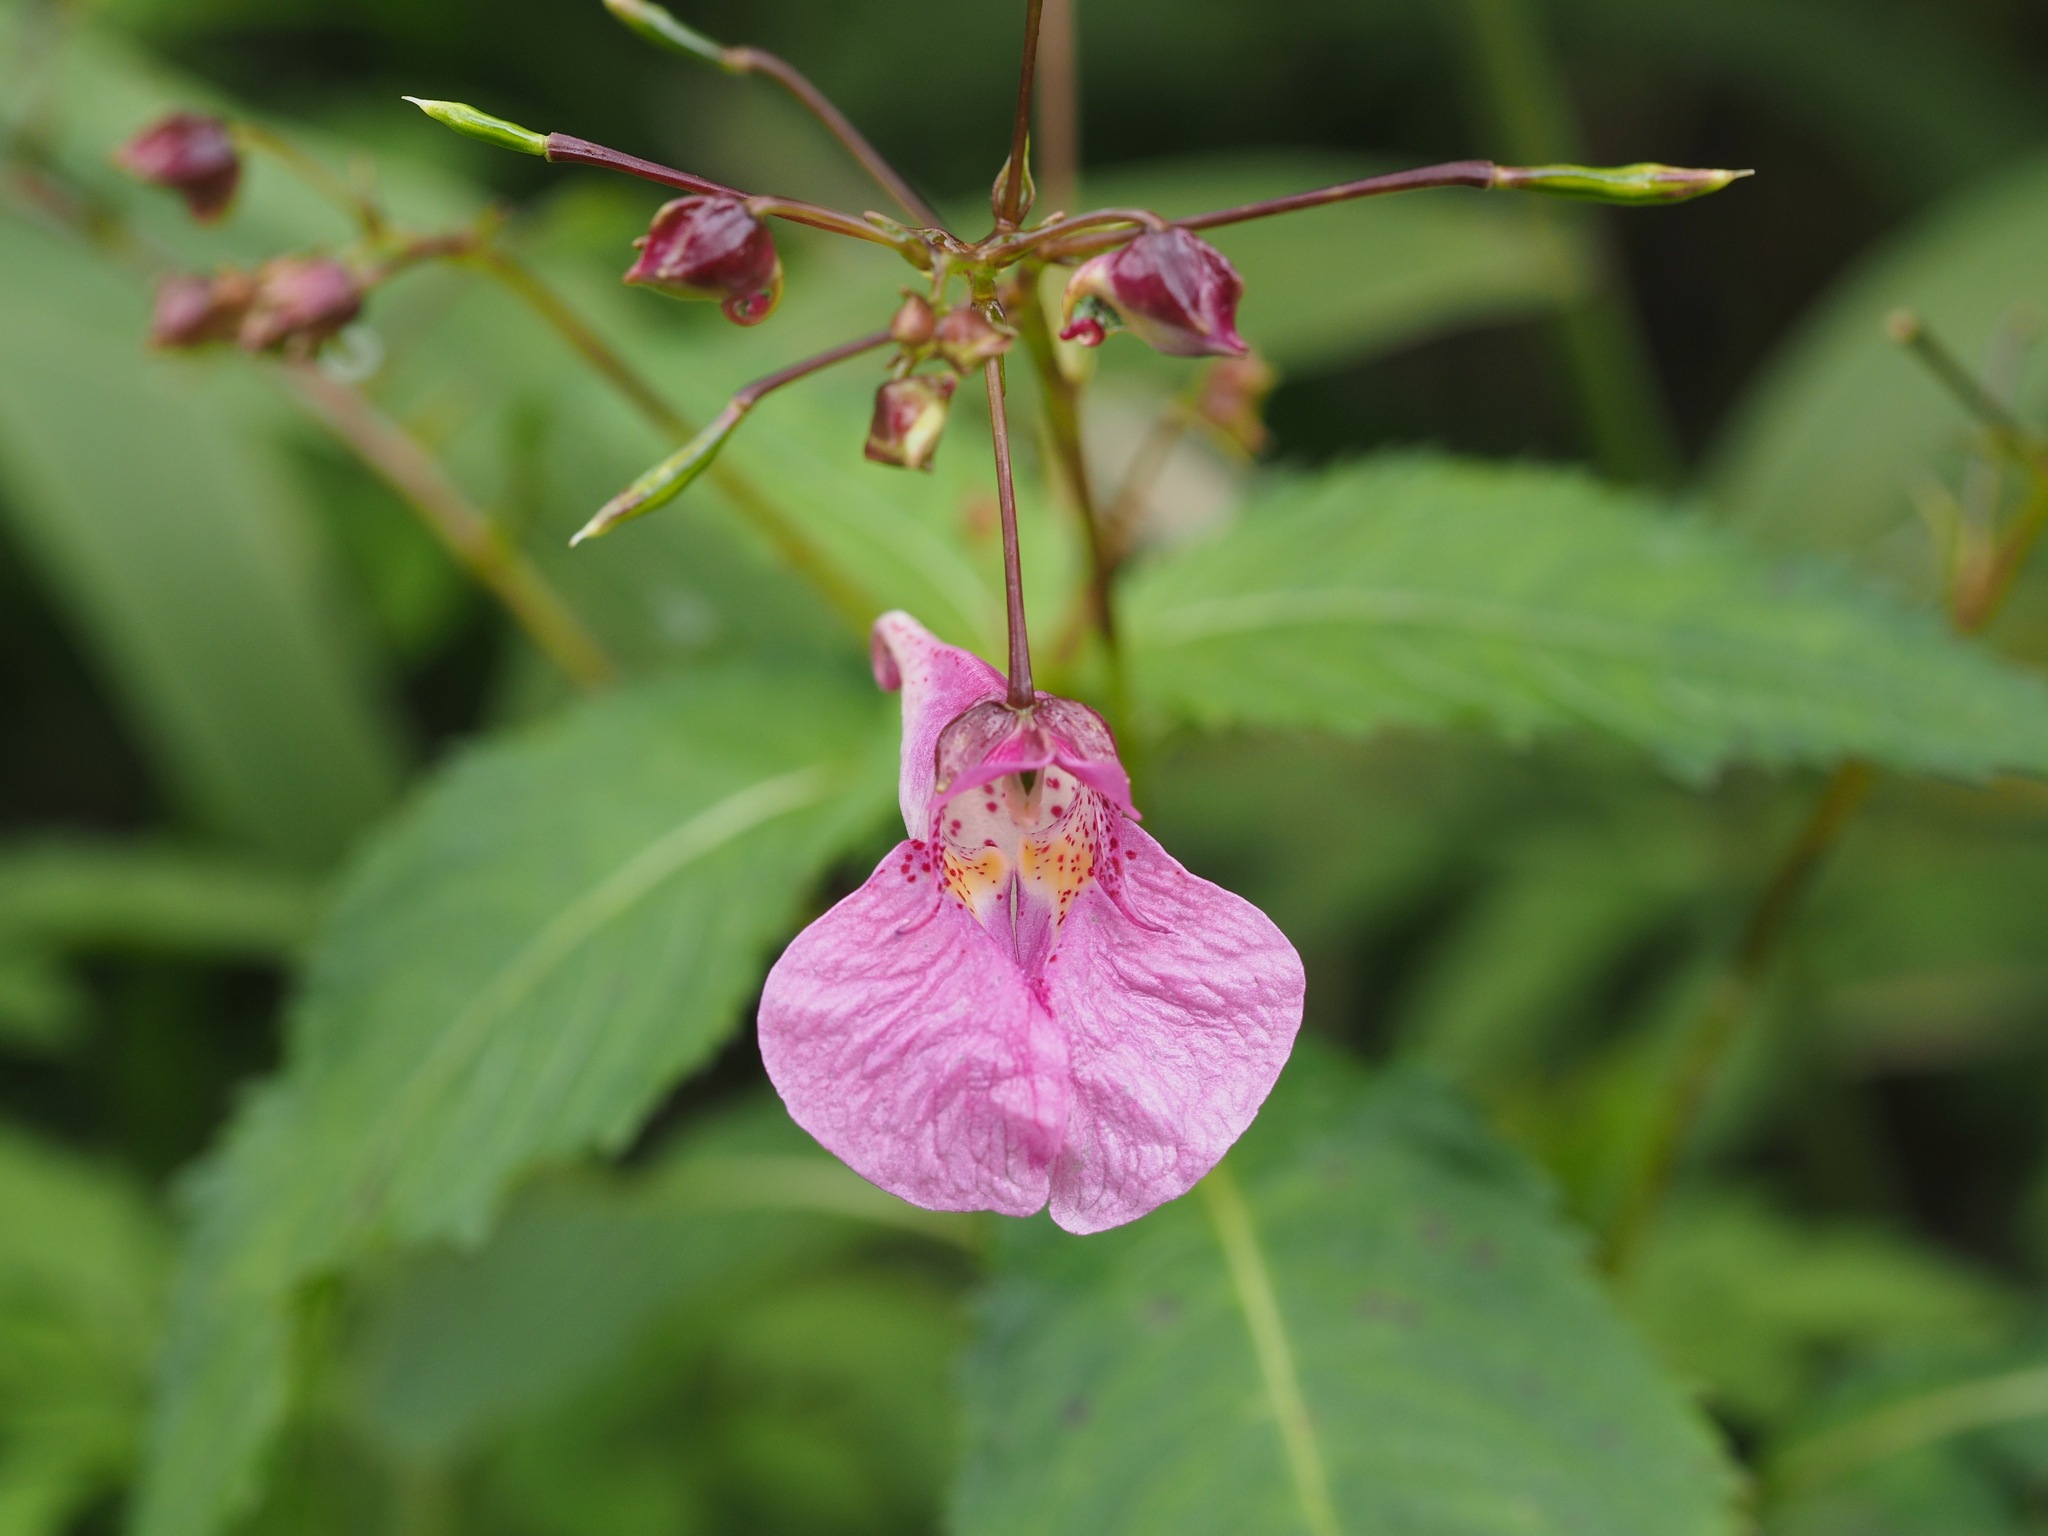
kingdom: Plantae
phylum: Tracheophyta
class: Magnoliopsida
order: Ericales
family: Balsaminaceae
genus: Impatiens
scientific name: Impatiens textorii
